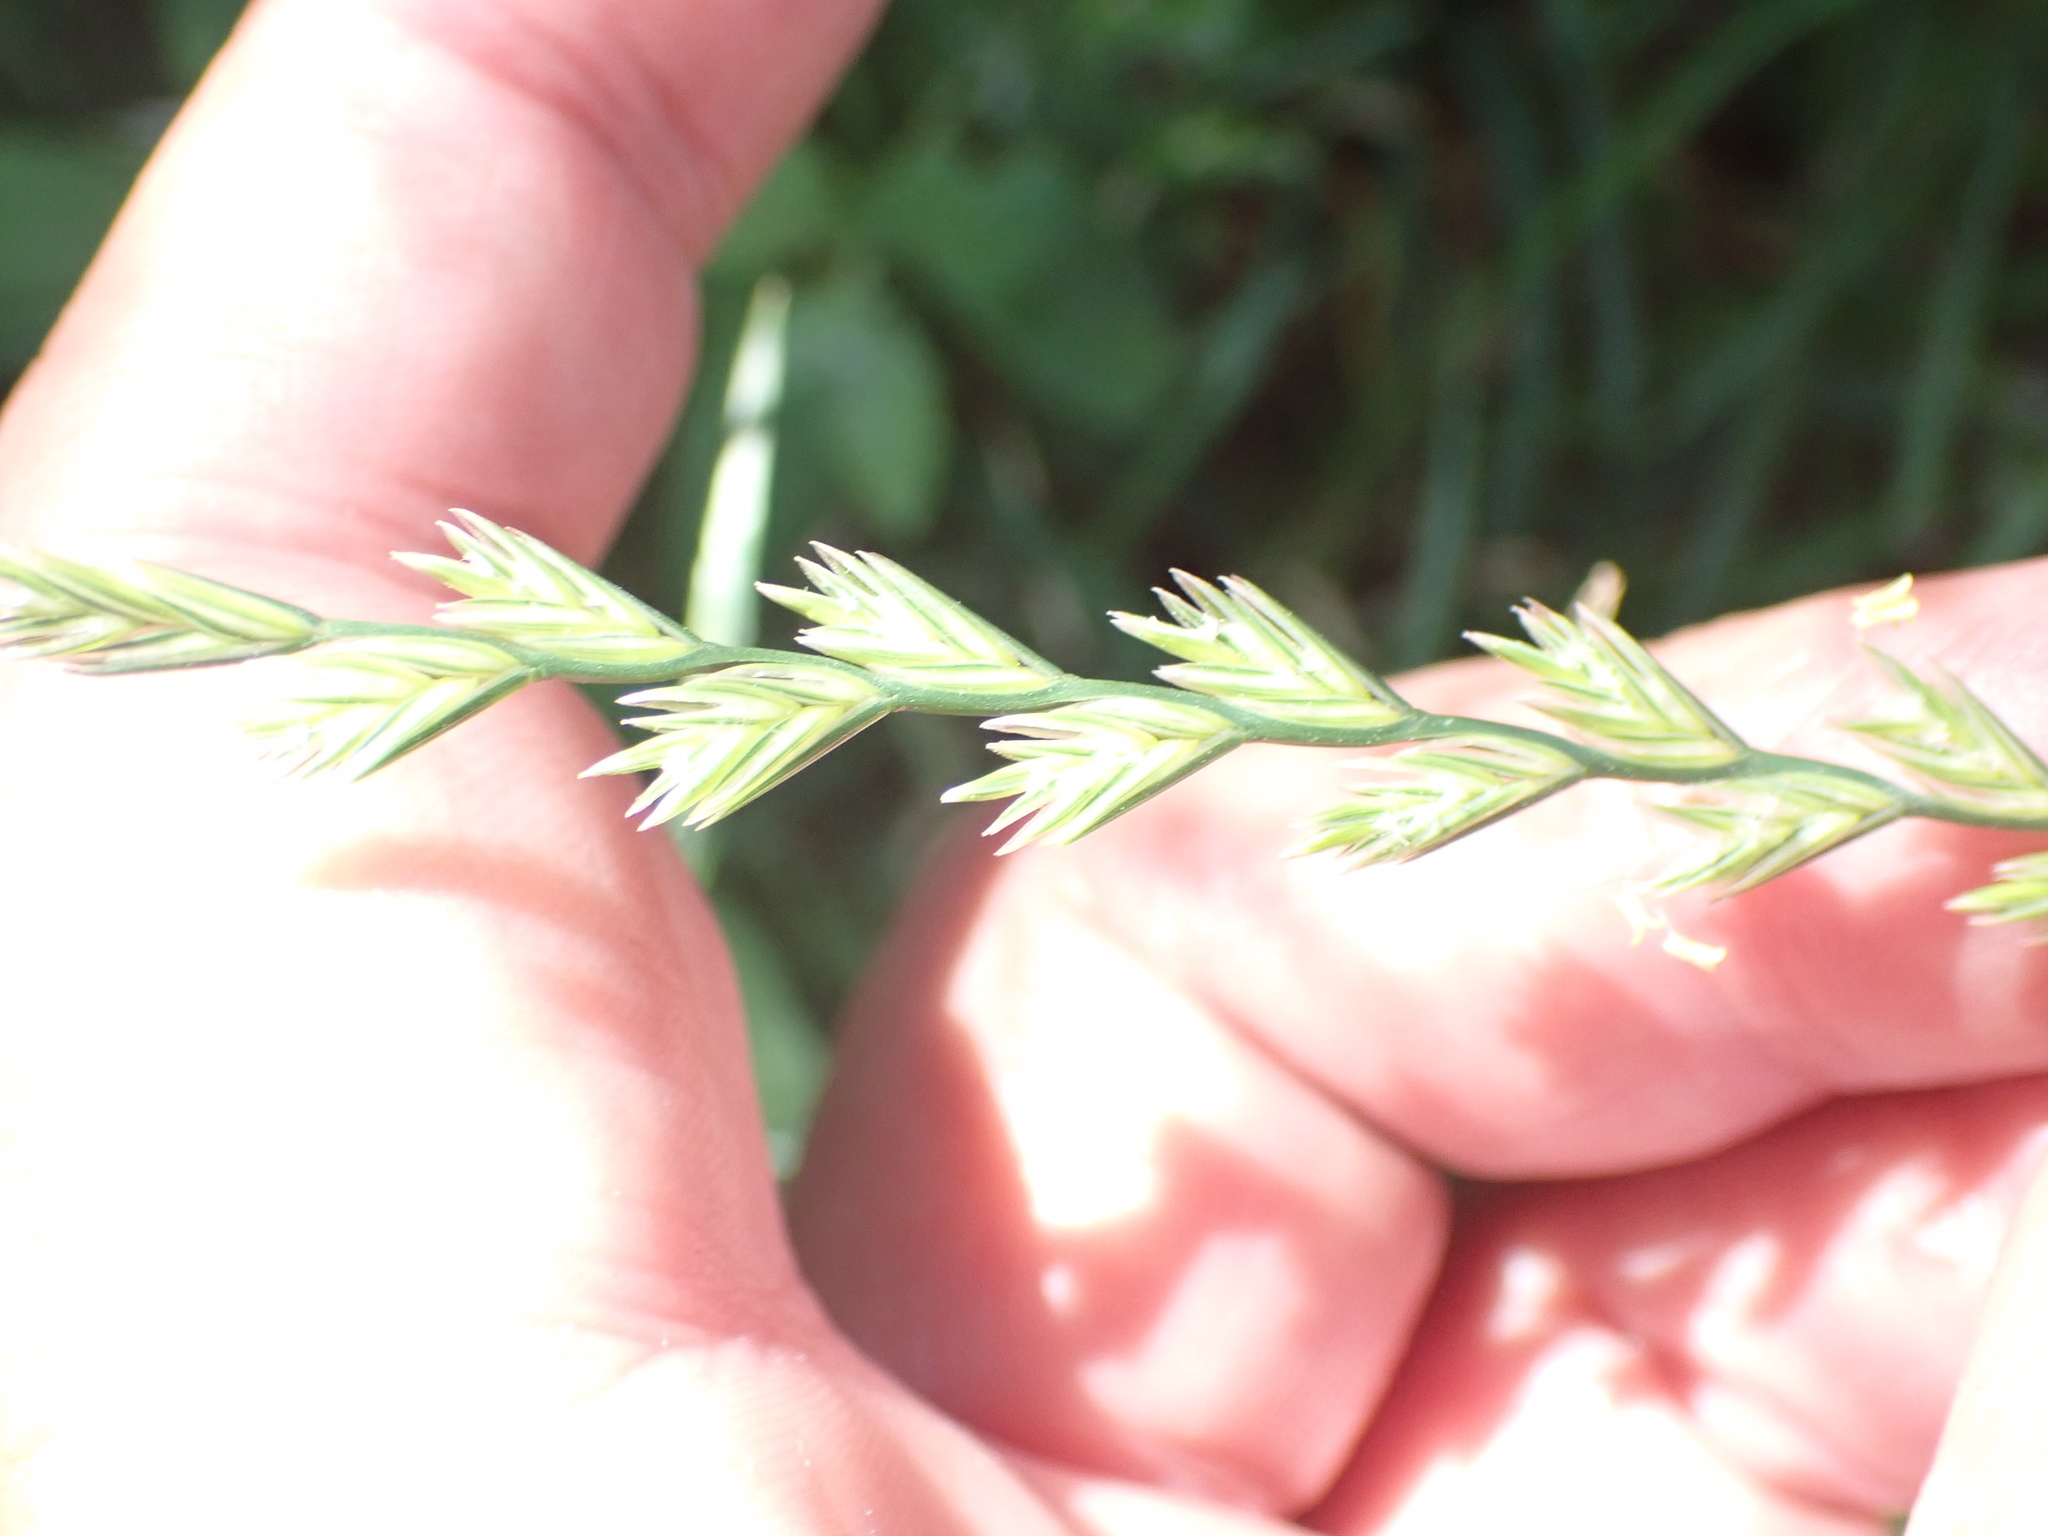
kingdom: Plantae
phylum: Tracheophyta
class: Liliopsida
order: Poales
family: Poaceae
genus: Lolium
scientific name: Lolium perenne
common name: Perennial ryegrass
